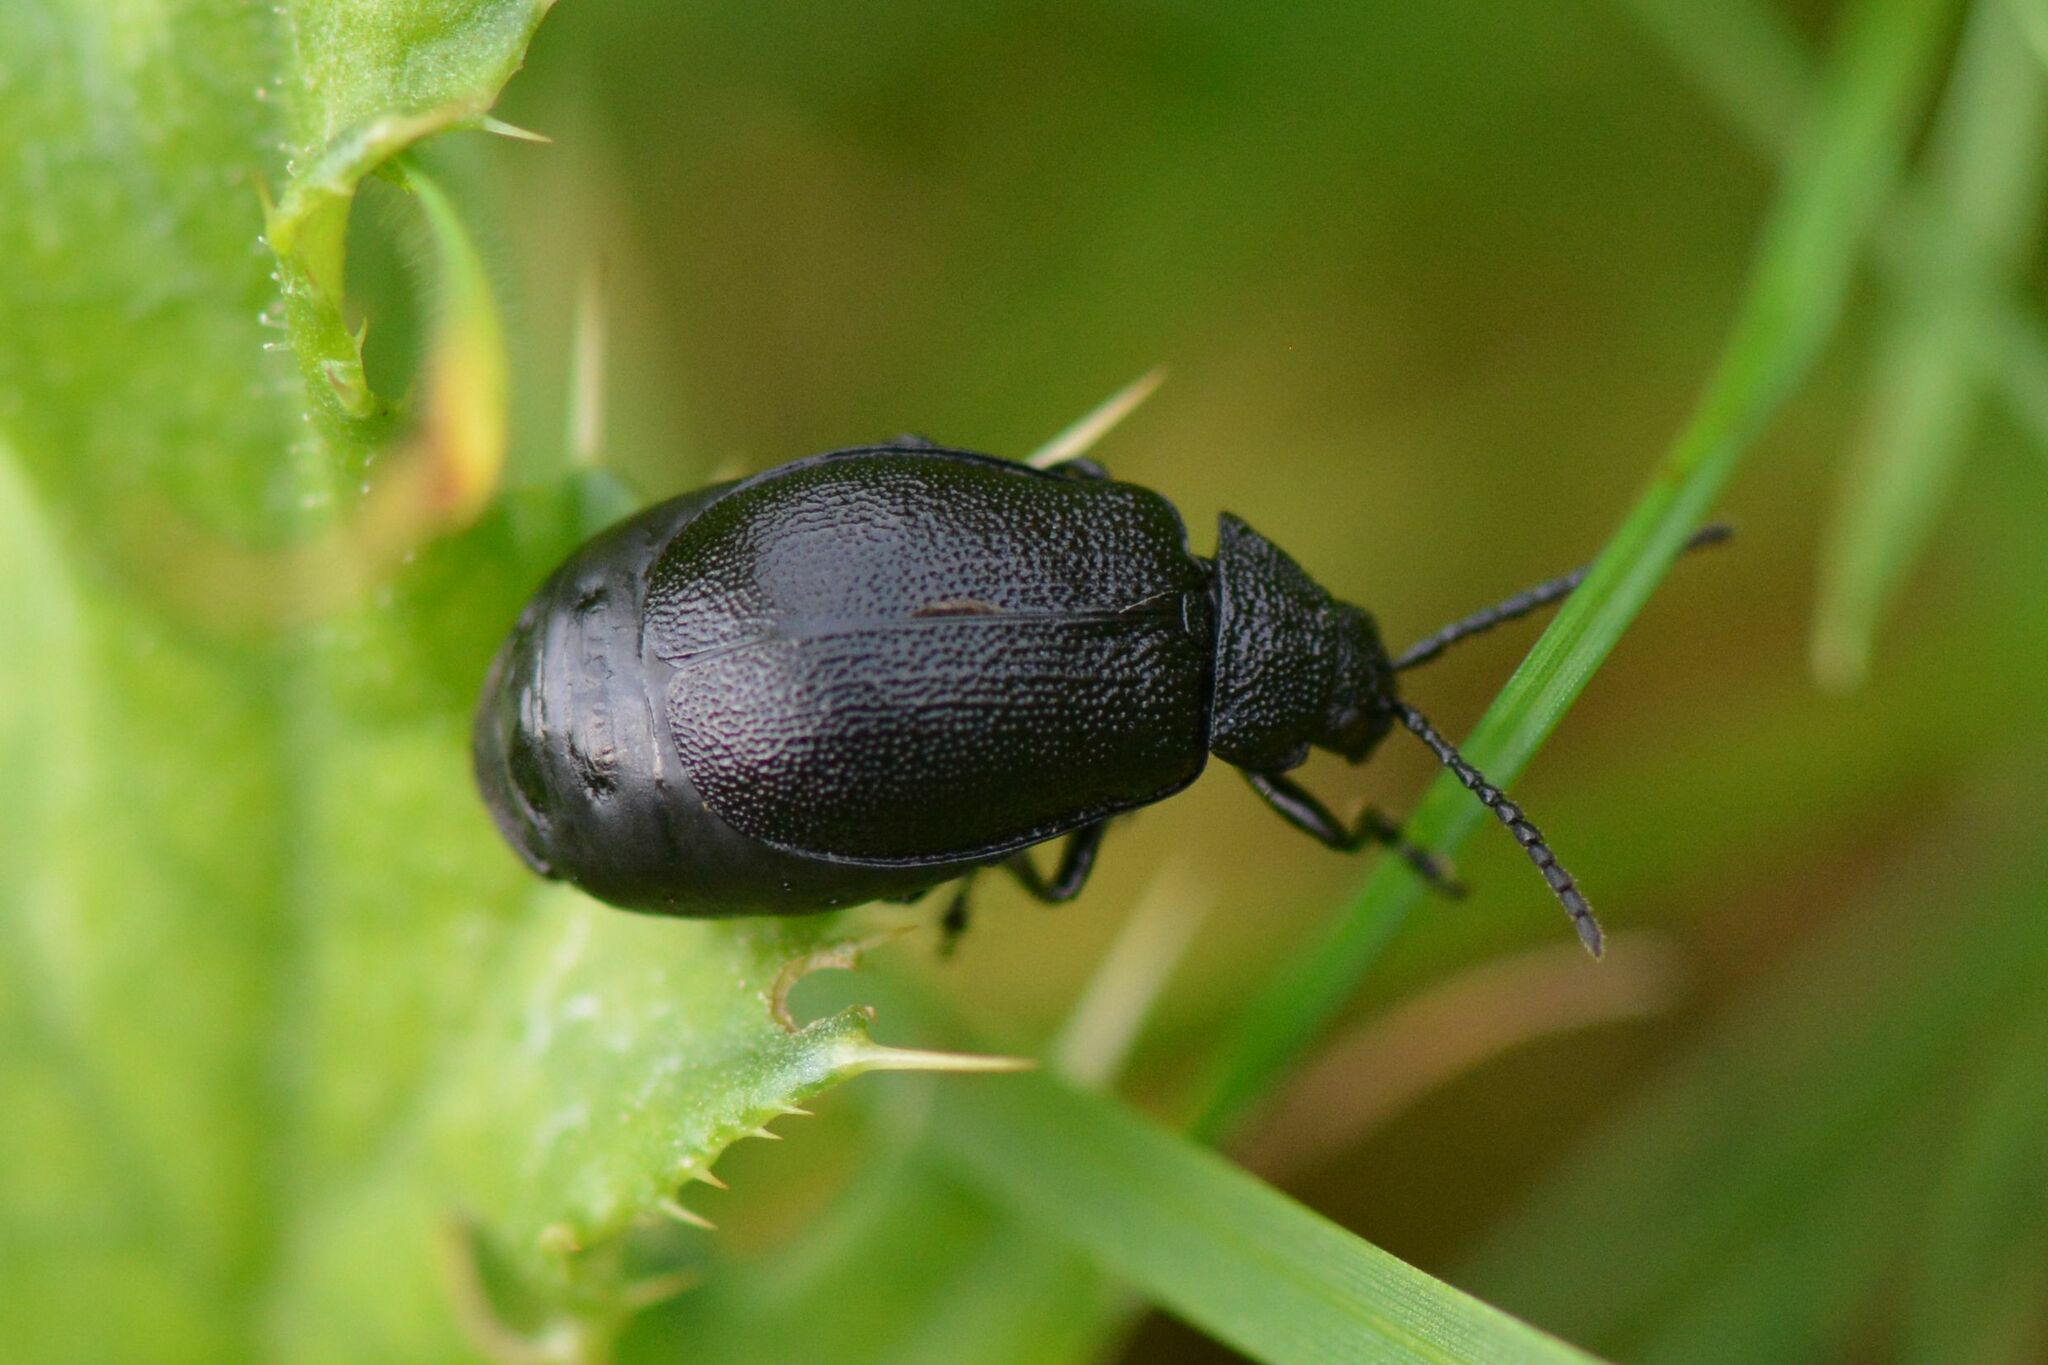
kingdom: Animalia
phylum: Arthropoda
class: Insecta
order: Coleoptera
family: Chrysomelidae
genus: Galeruca
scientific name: Galeruca tanaceti
